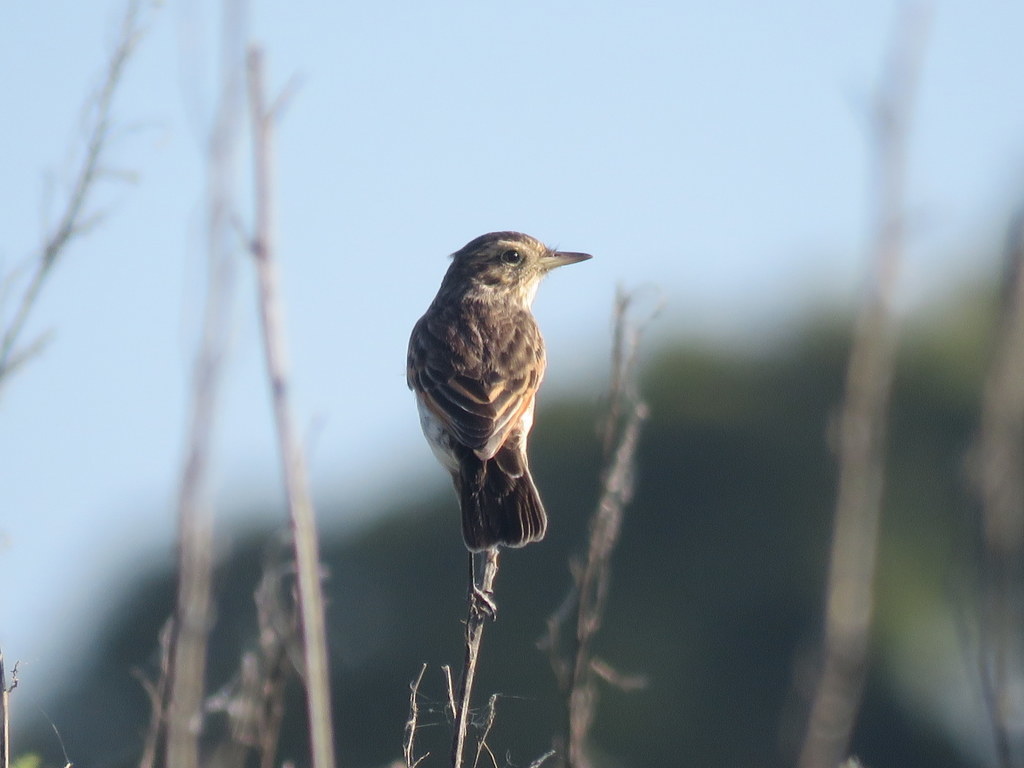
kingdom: Animalia
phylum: Chordata
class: Aves
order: Passeriformes
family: Tyrannidae
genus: Hymenops
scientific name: Hymenops perspicillatus
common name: Spectacled tyrant
